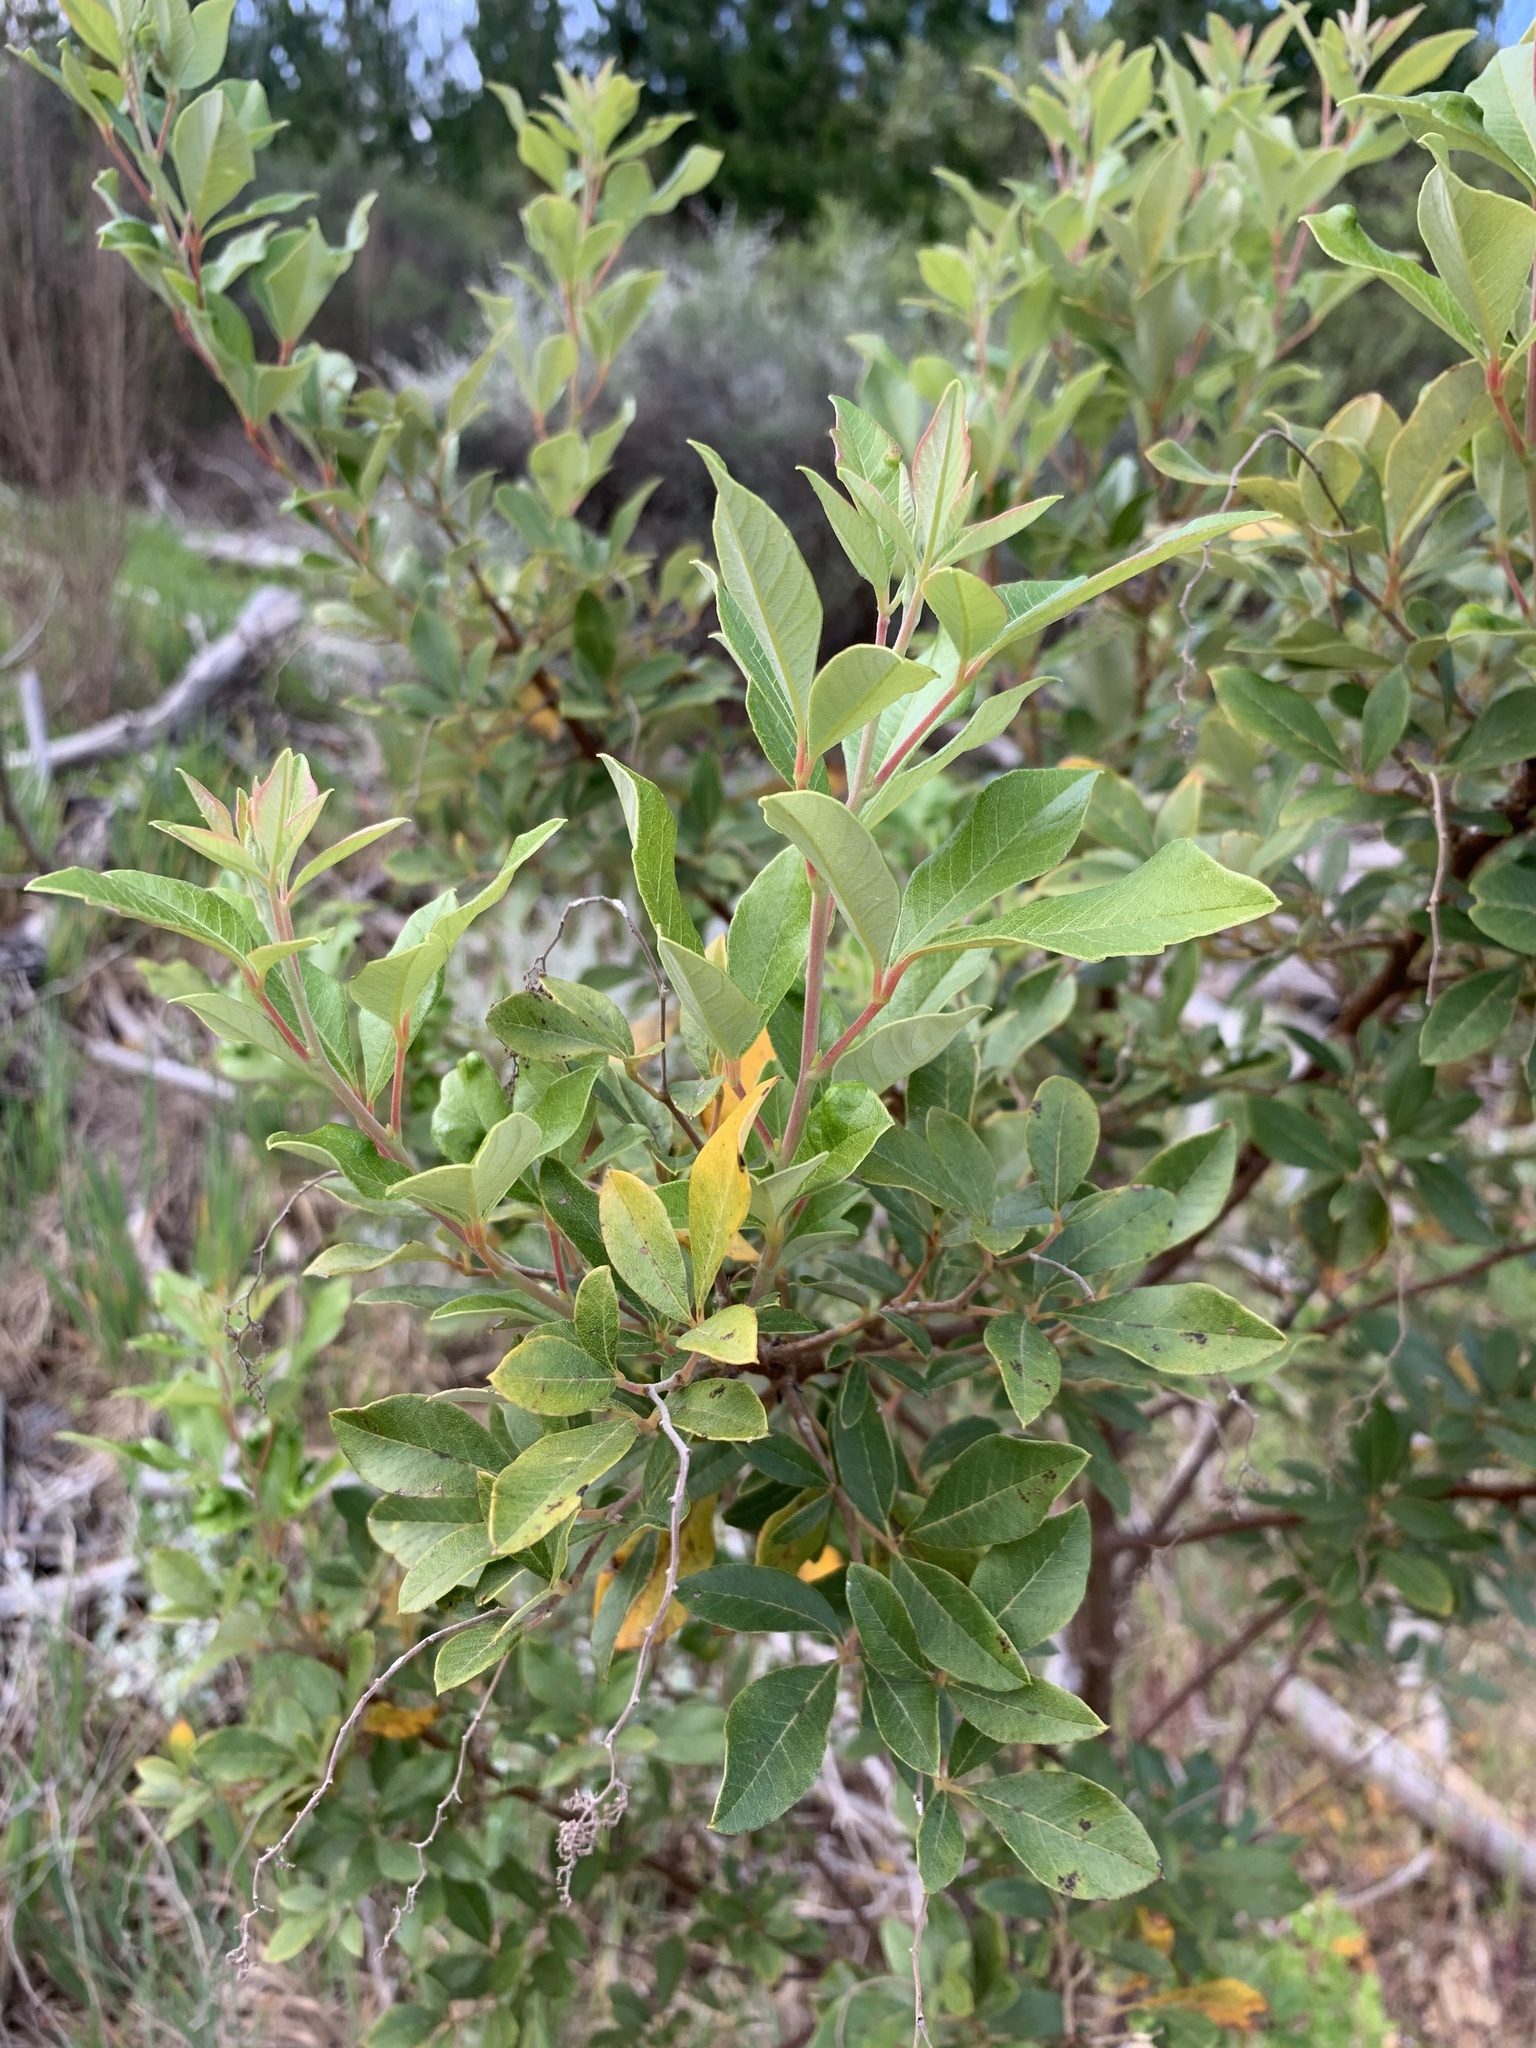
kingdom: Plantae
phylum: Tracheophyta
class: Magnoliopsida
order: Sapindales
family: Anacardiaceae
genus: Searsia
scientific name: Searsia tomentosa
